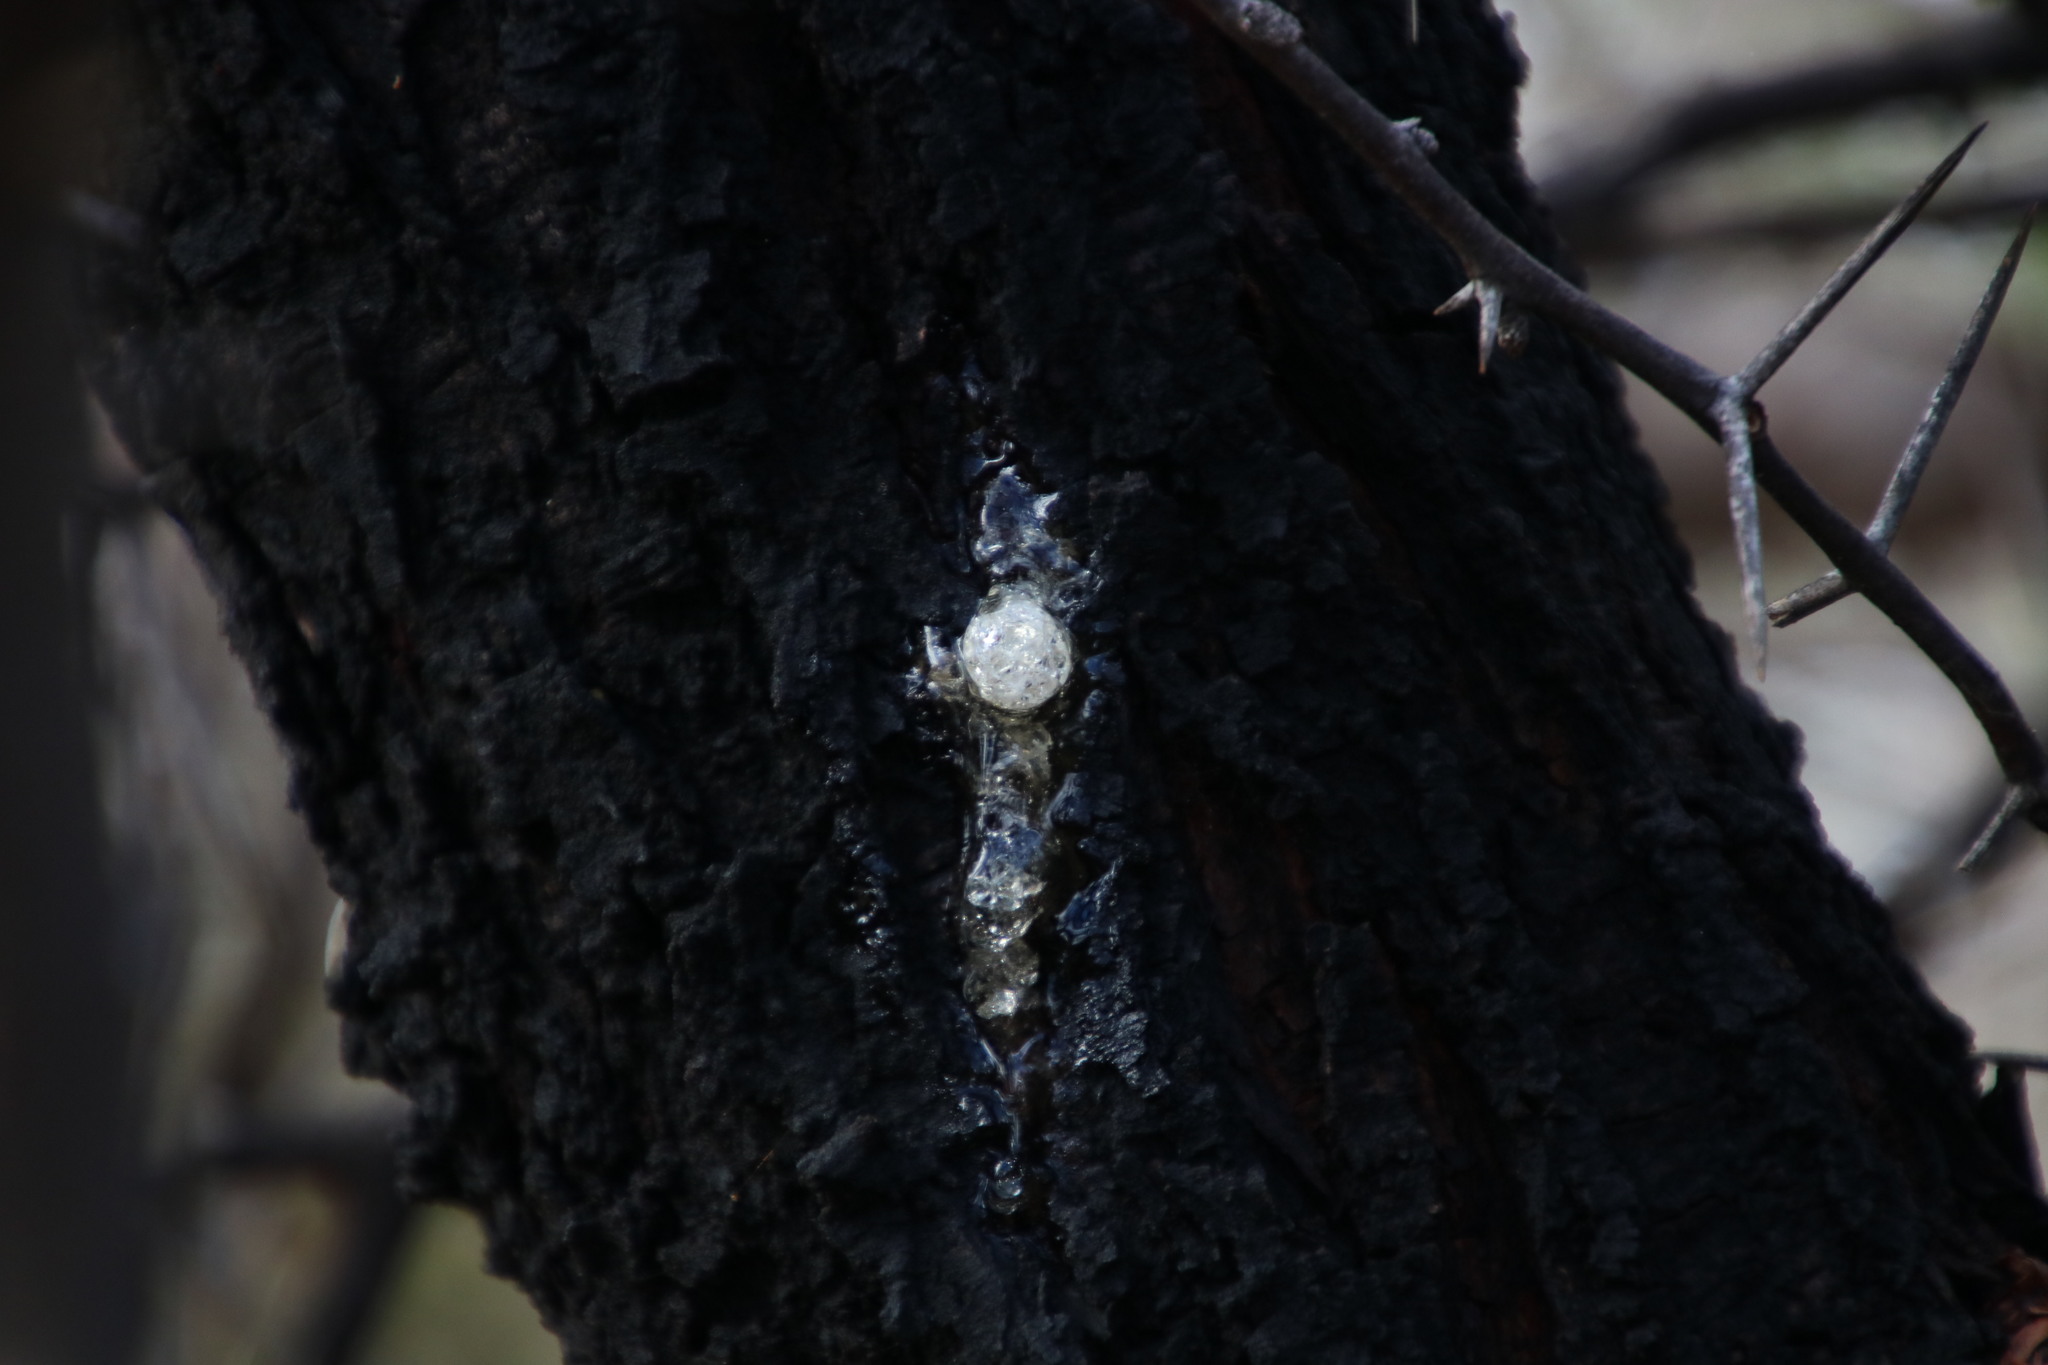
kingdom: Plantae
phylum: Tracheophyta
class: Magnoliopsida
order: Fabales
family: Fabaceae
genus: Vachellia
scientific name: Vachellia karroo
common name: Sweet thorn
